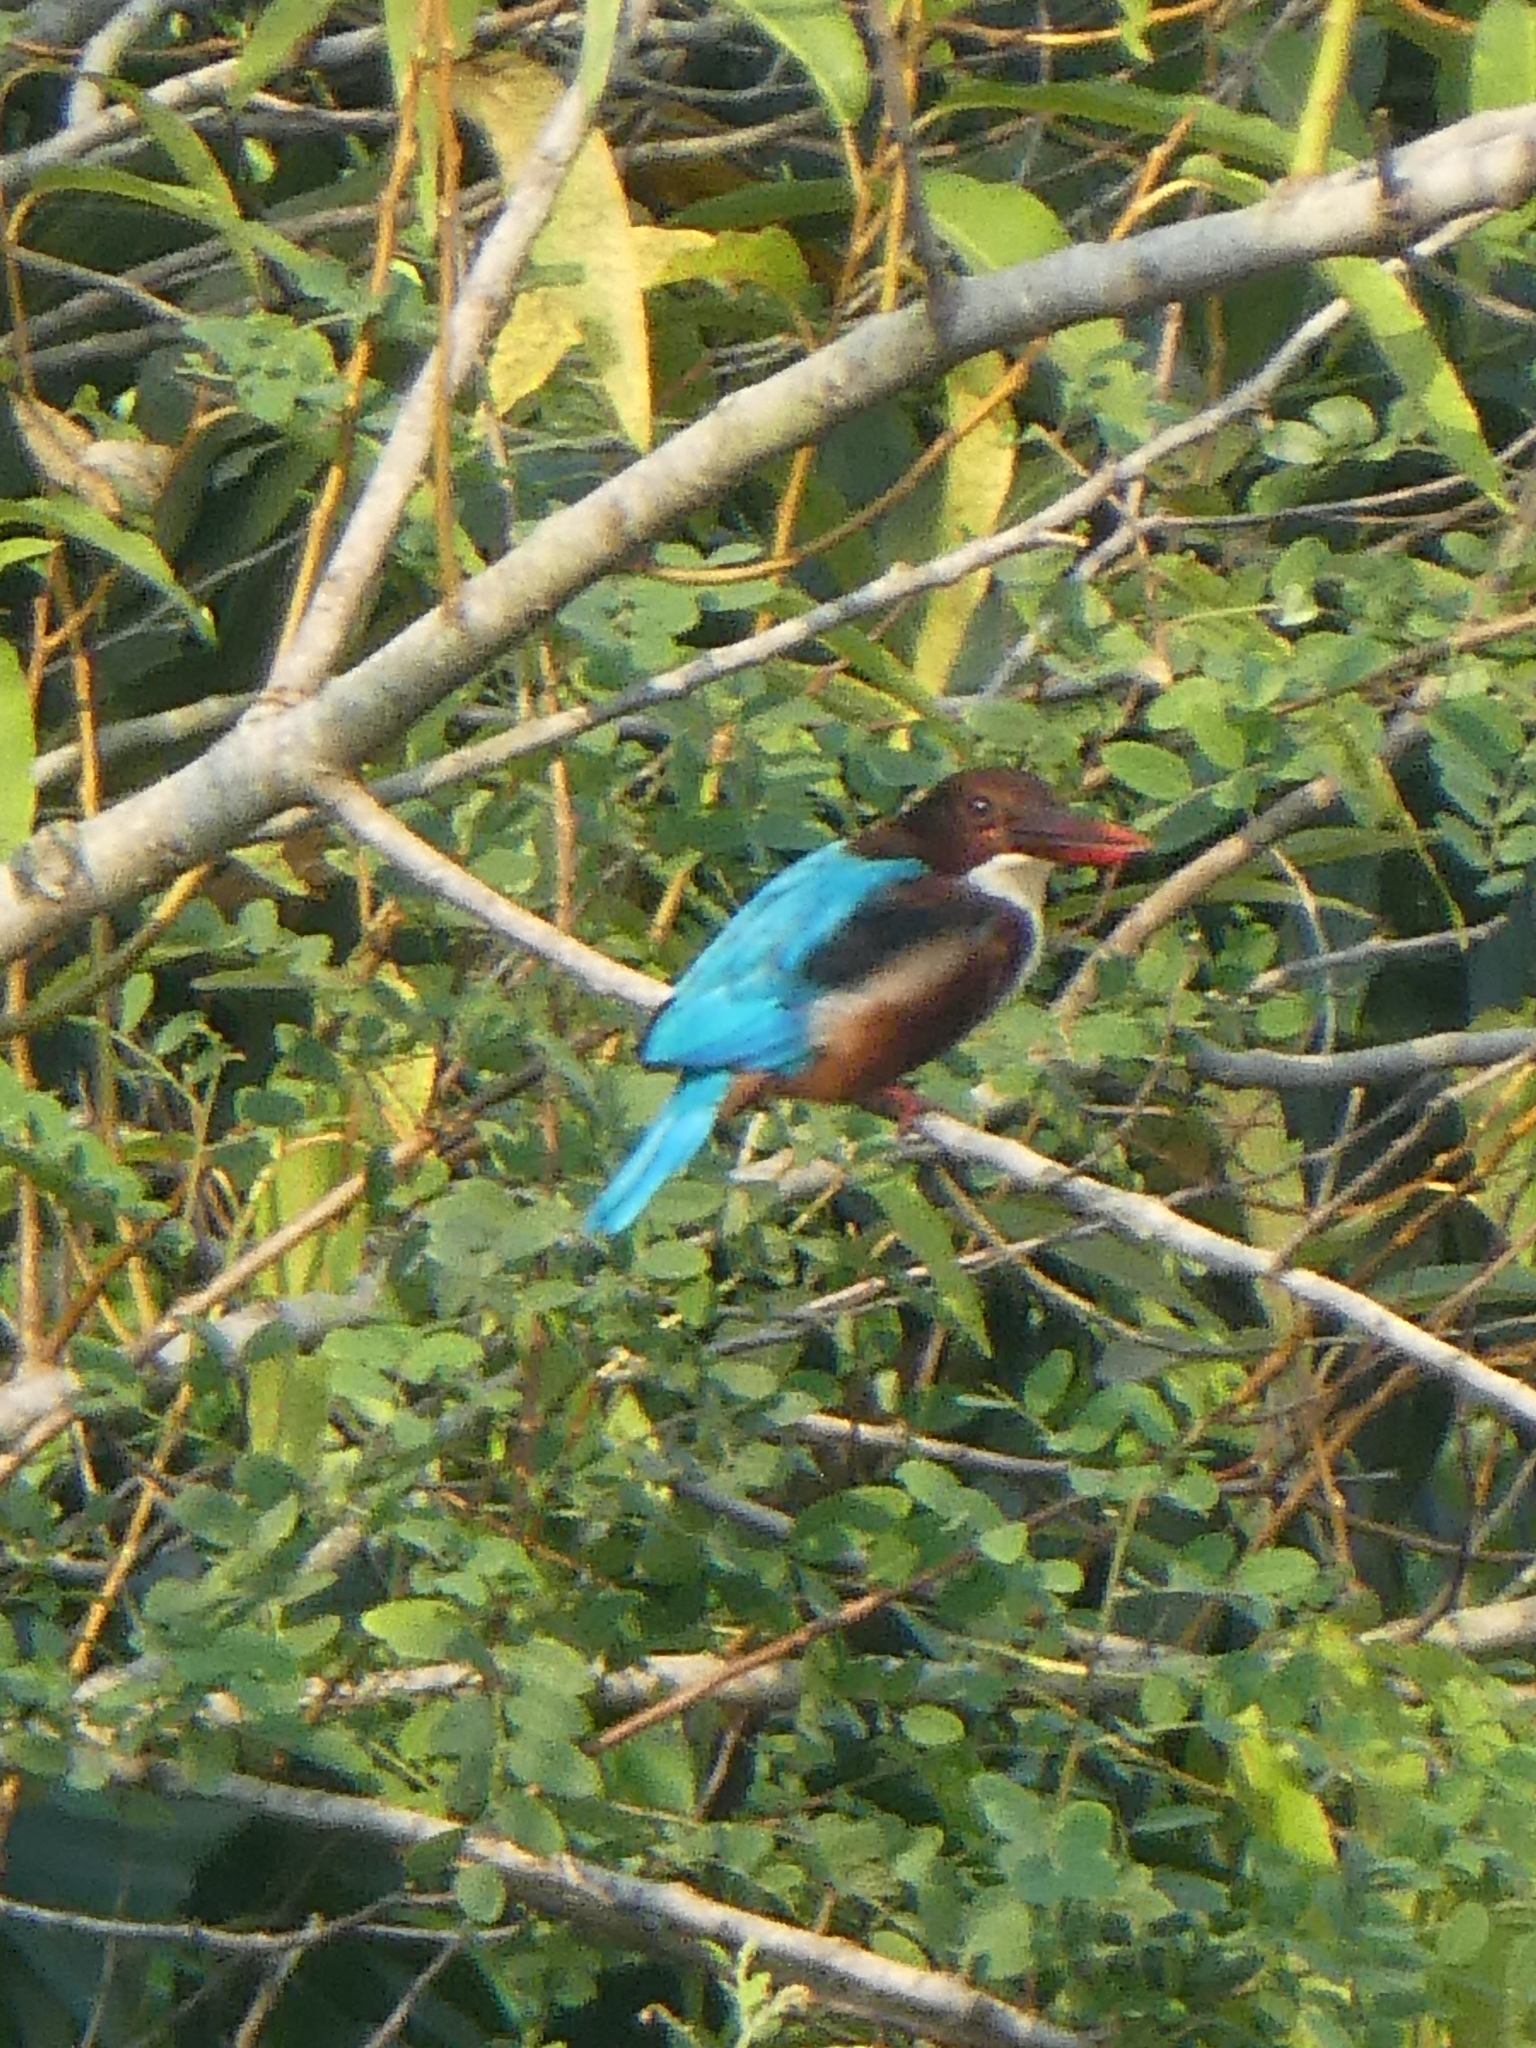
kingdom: Animalia
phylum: Chordata
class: Aves
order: Coraciiformes
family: Alcedinidae
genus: Halcyon
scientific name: Halcyon smyrnensis
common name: White-throated kingfisher
